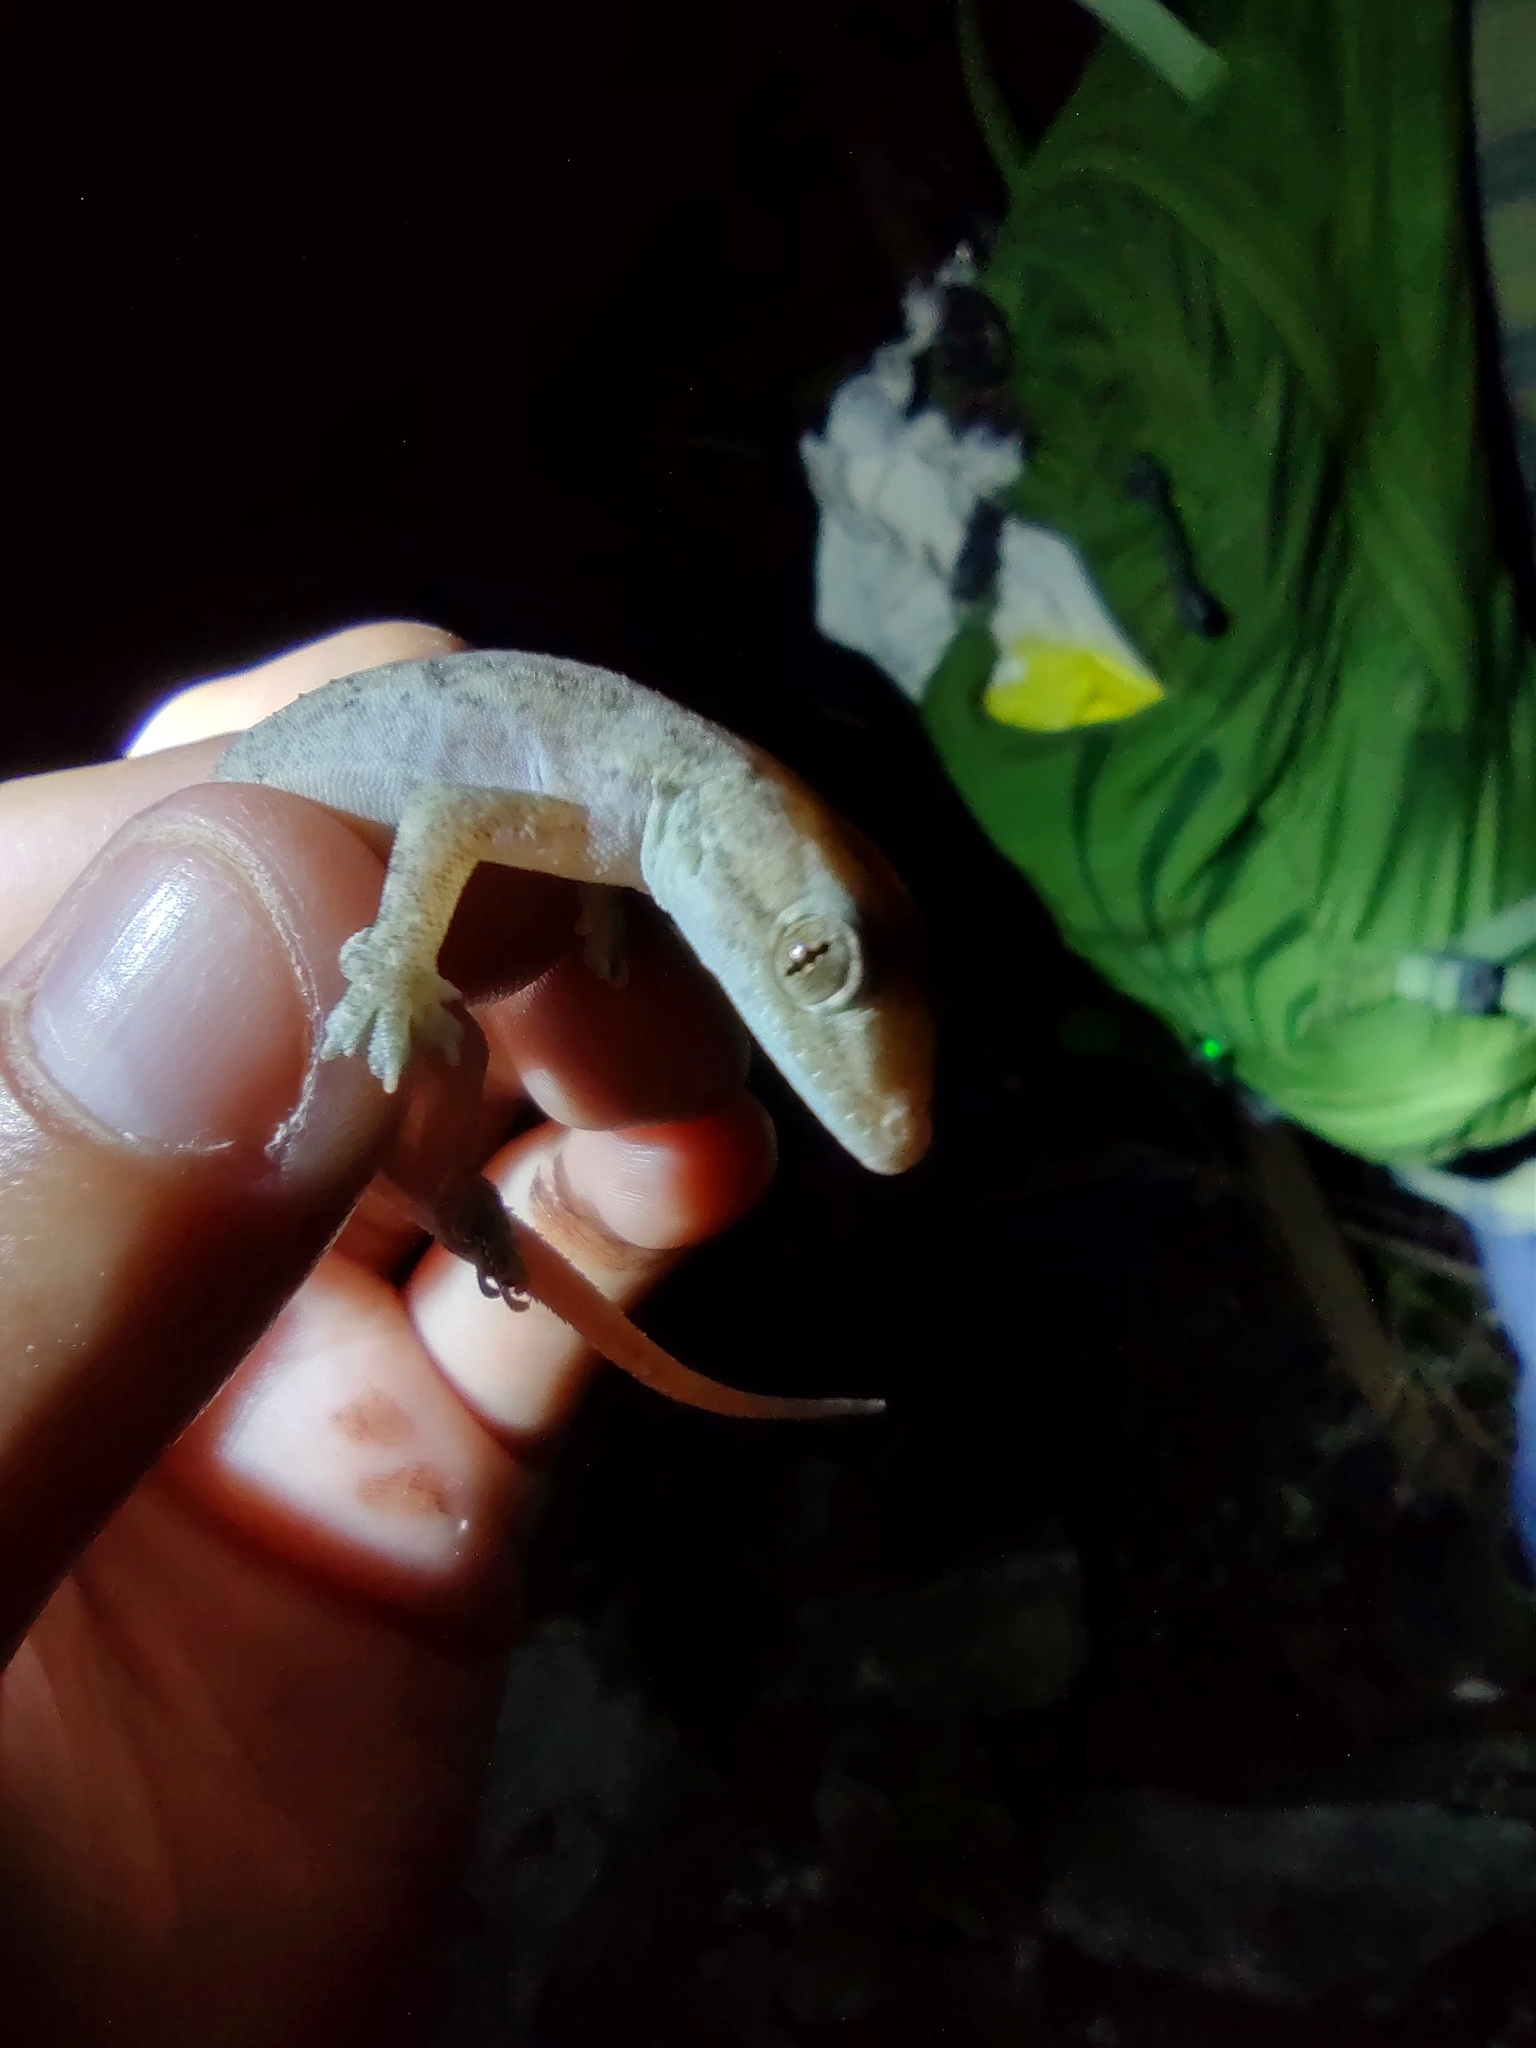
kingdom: Animalia
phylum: Chordata
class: Squamata
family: Gekkonidae
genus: Hemidactylus
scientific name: Hemidactylus frenatus
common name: Common house gecko
